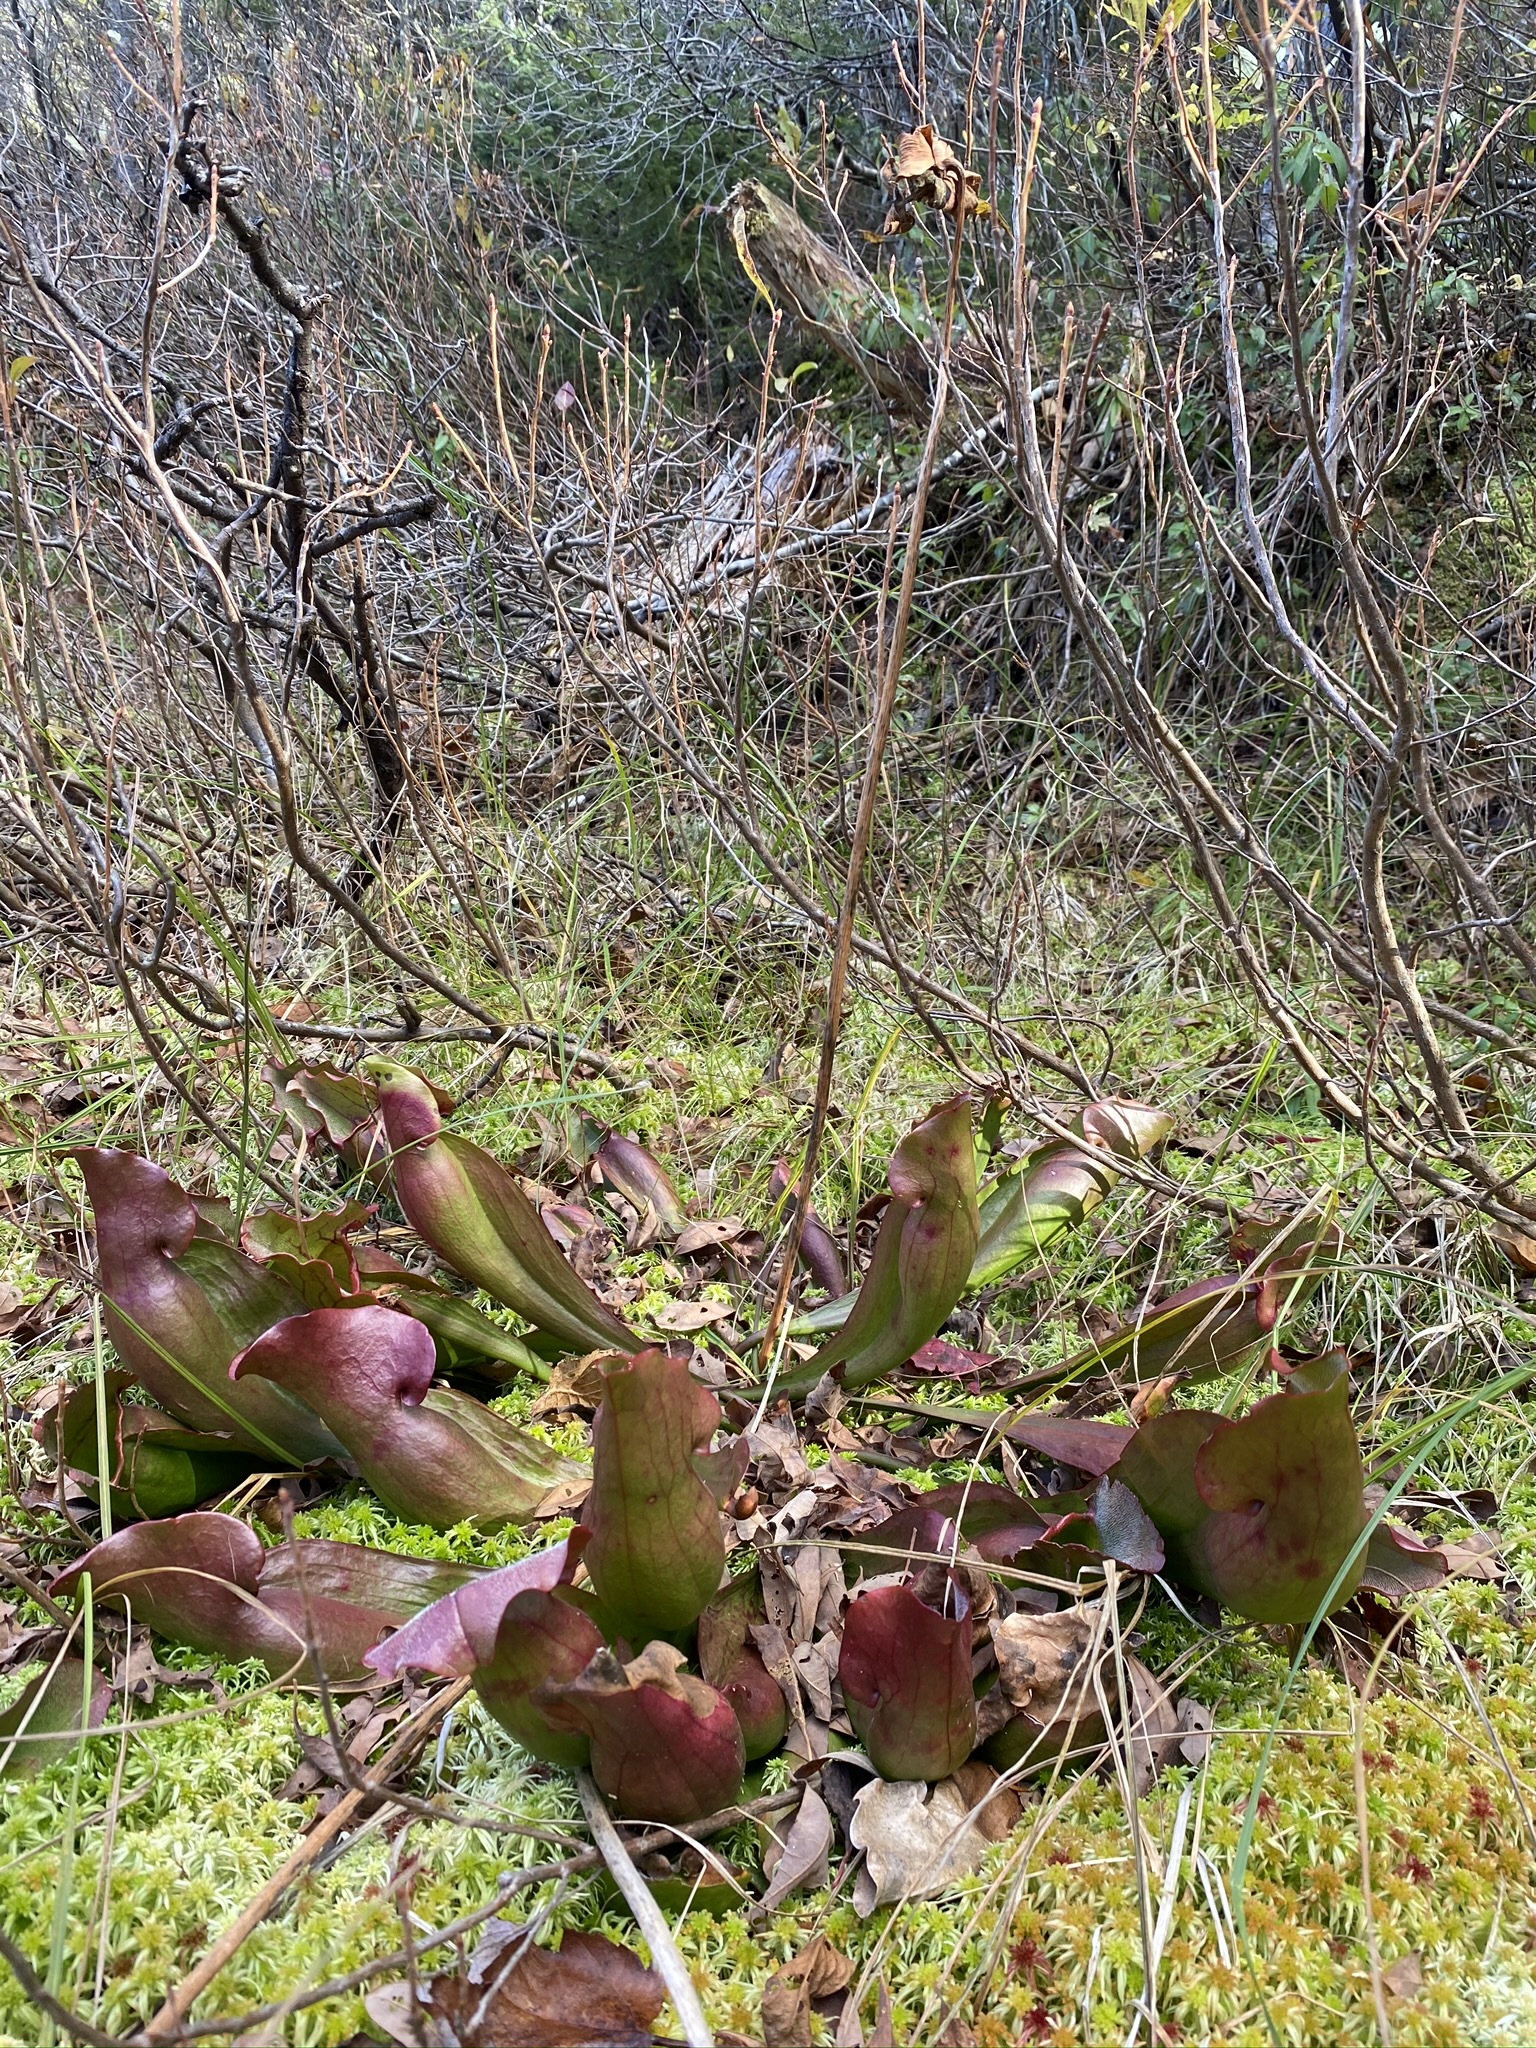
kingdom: Plantae
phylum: Tracheophyta
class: Magnoliopsida
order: Ericales
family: Sarraceniaceae
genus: Sarracenia
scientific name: Sarracenia purpurea
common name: Pitcherplant
